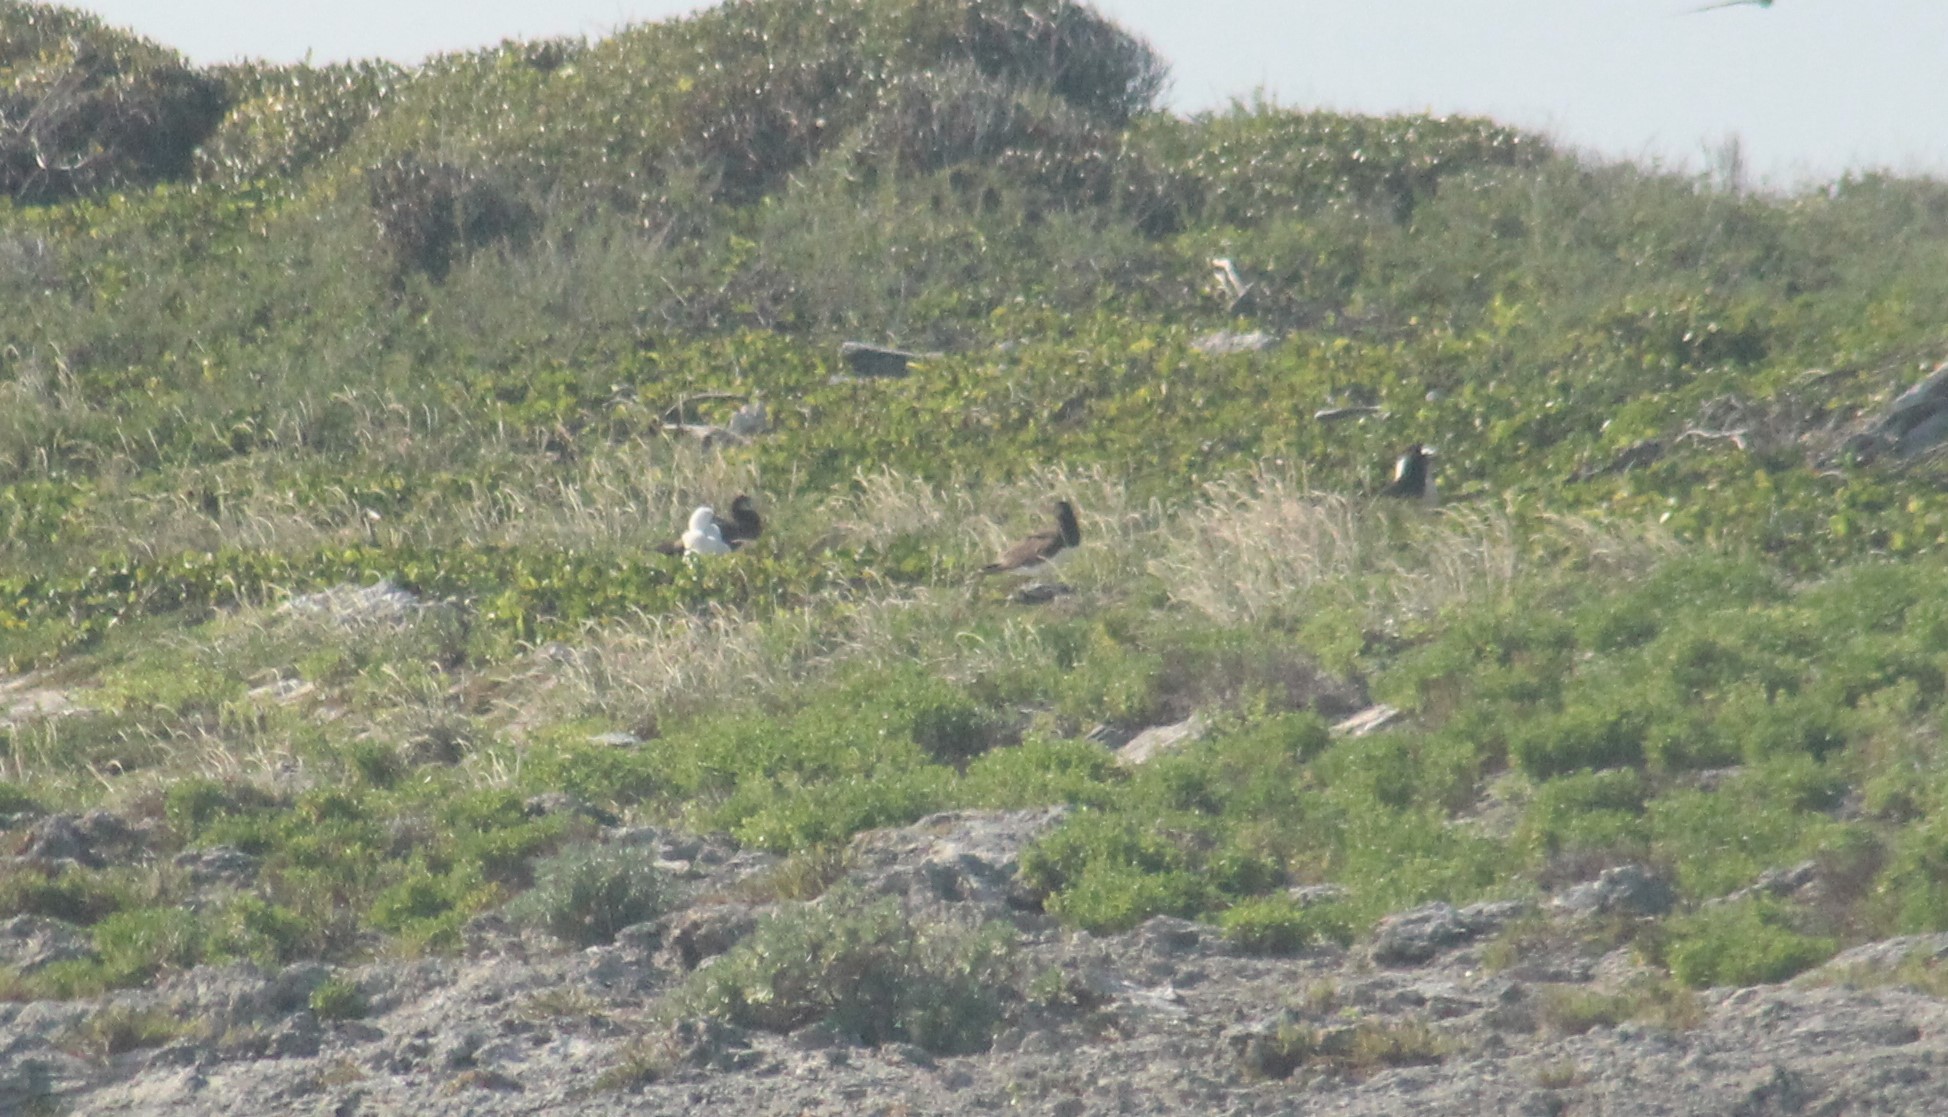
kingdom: Animalia
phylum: Chordata
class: Aves
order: Suliformes
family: Sulidae
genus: Sula
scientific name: Sula leucogaster
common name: Brown booby
